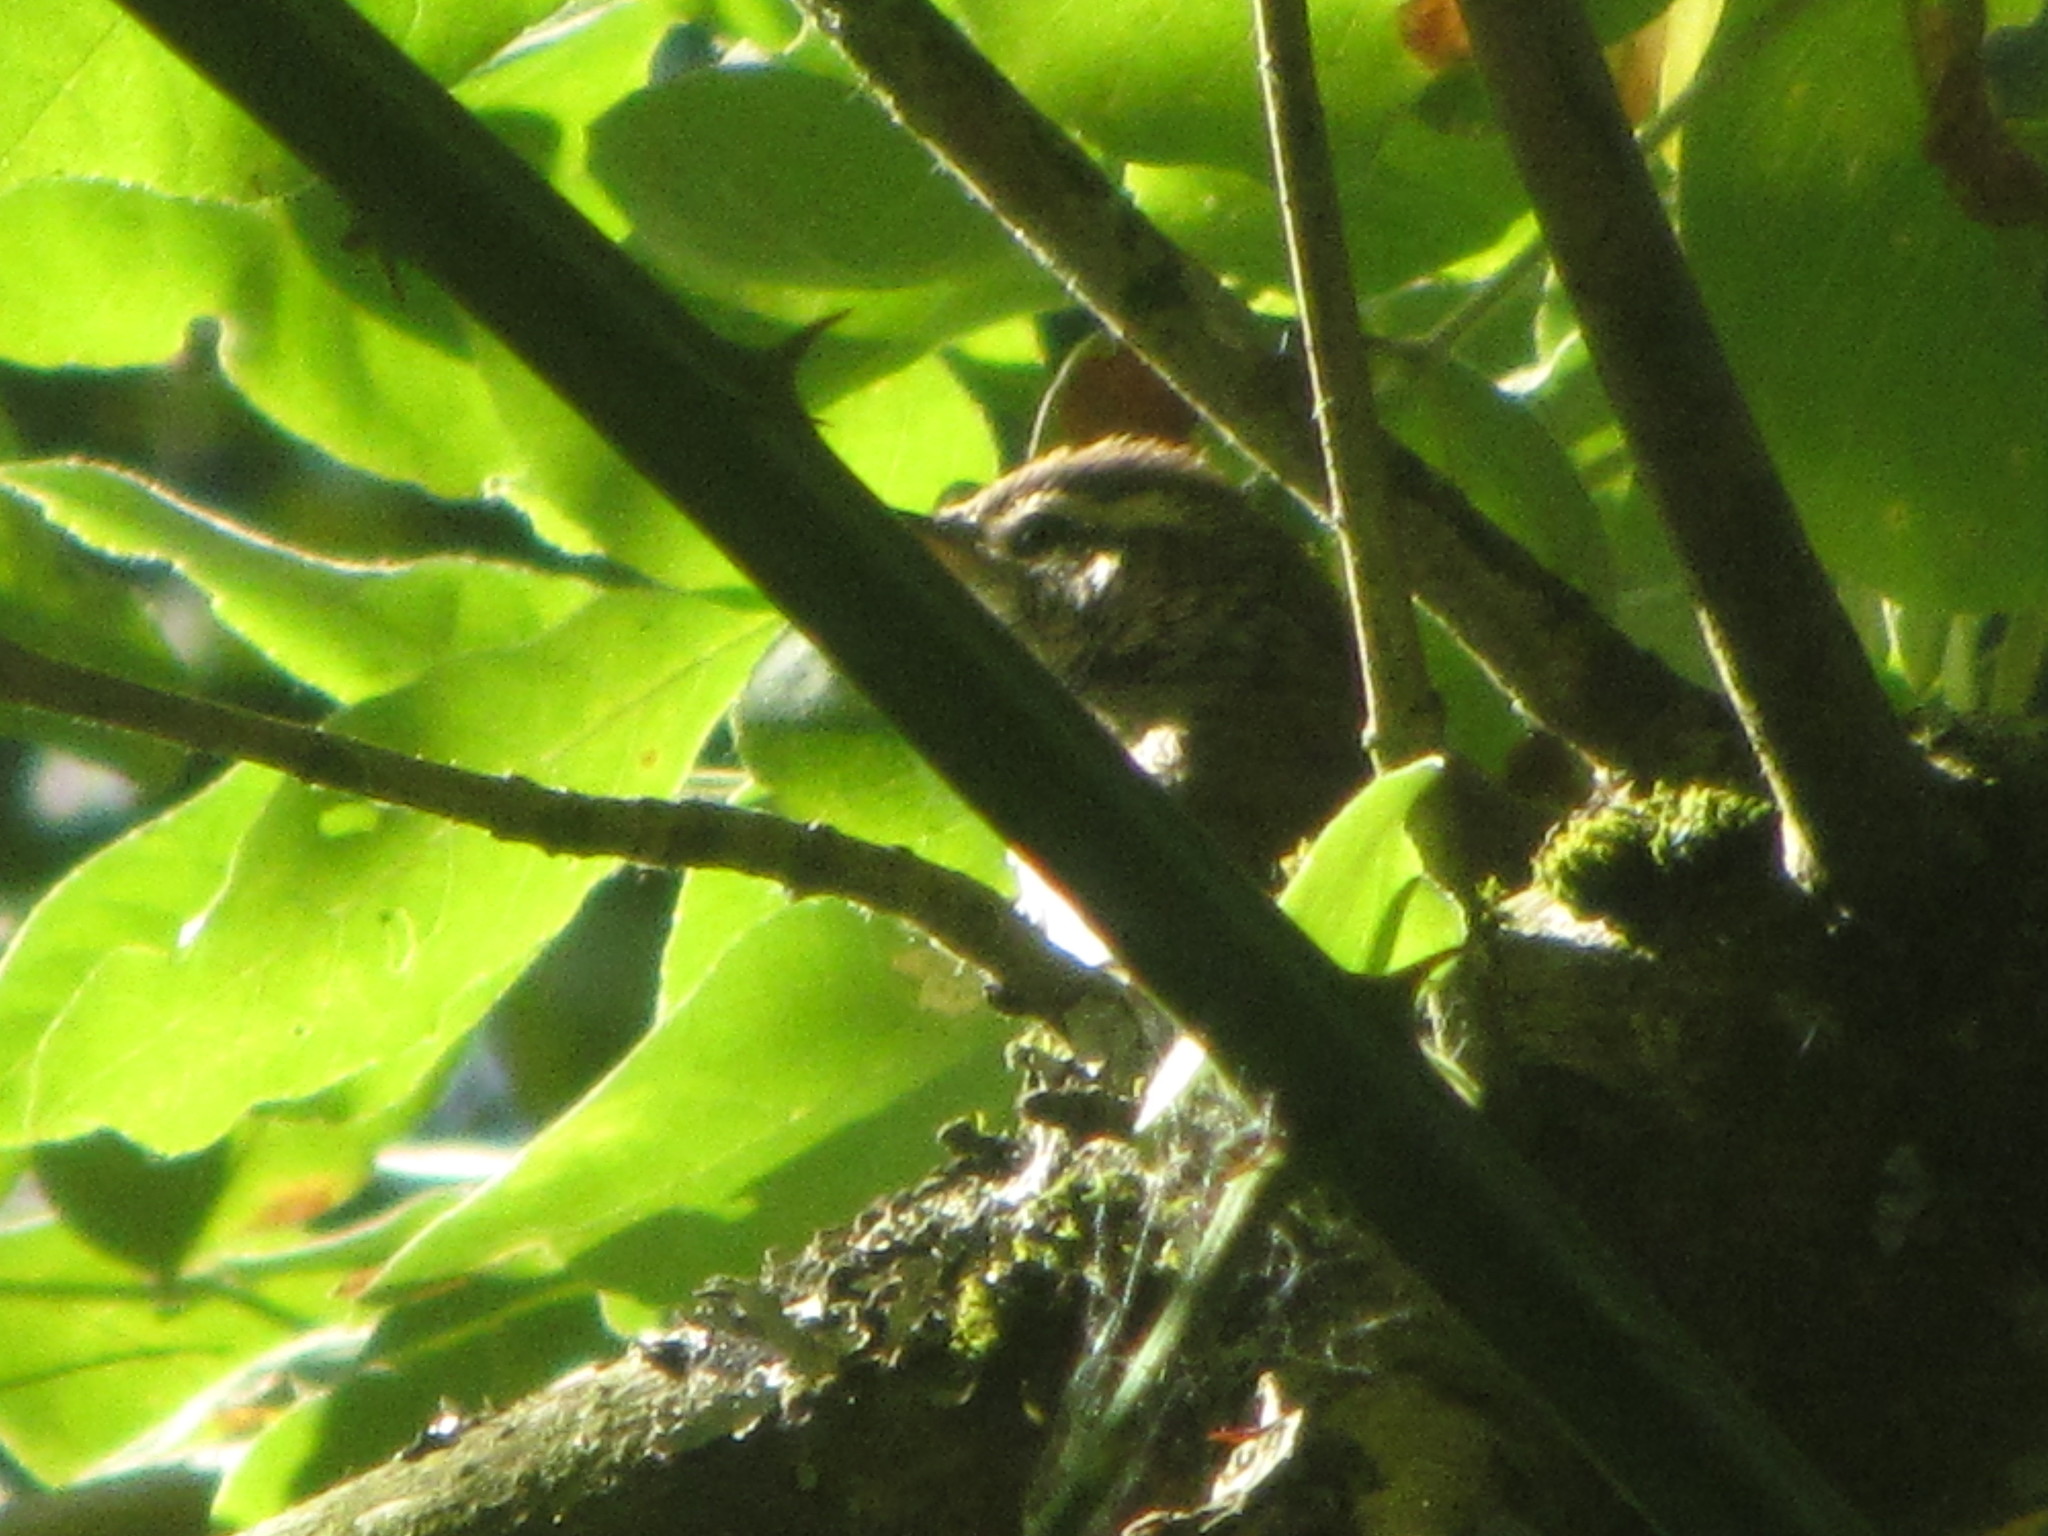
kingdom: Animalia
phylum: Chordata
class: Aves
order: Passeriformes
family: Troglodytidae
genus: Thryomanes
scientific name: Thryomanes bewickii
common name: Bewick's wren
